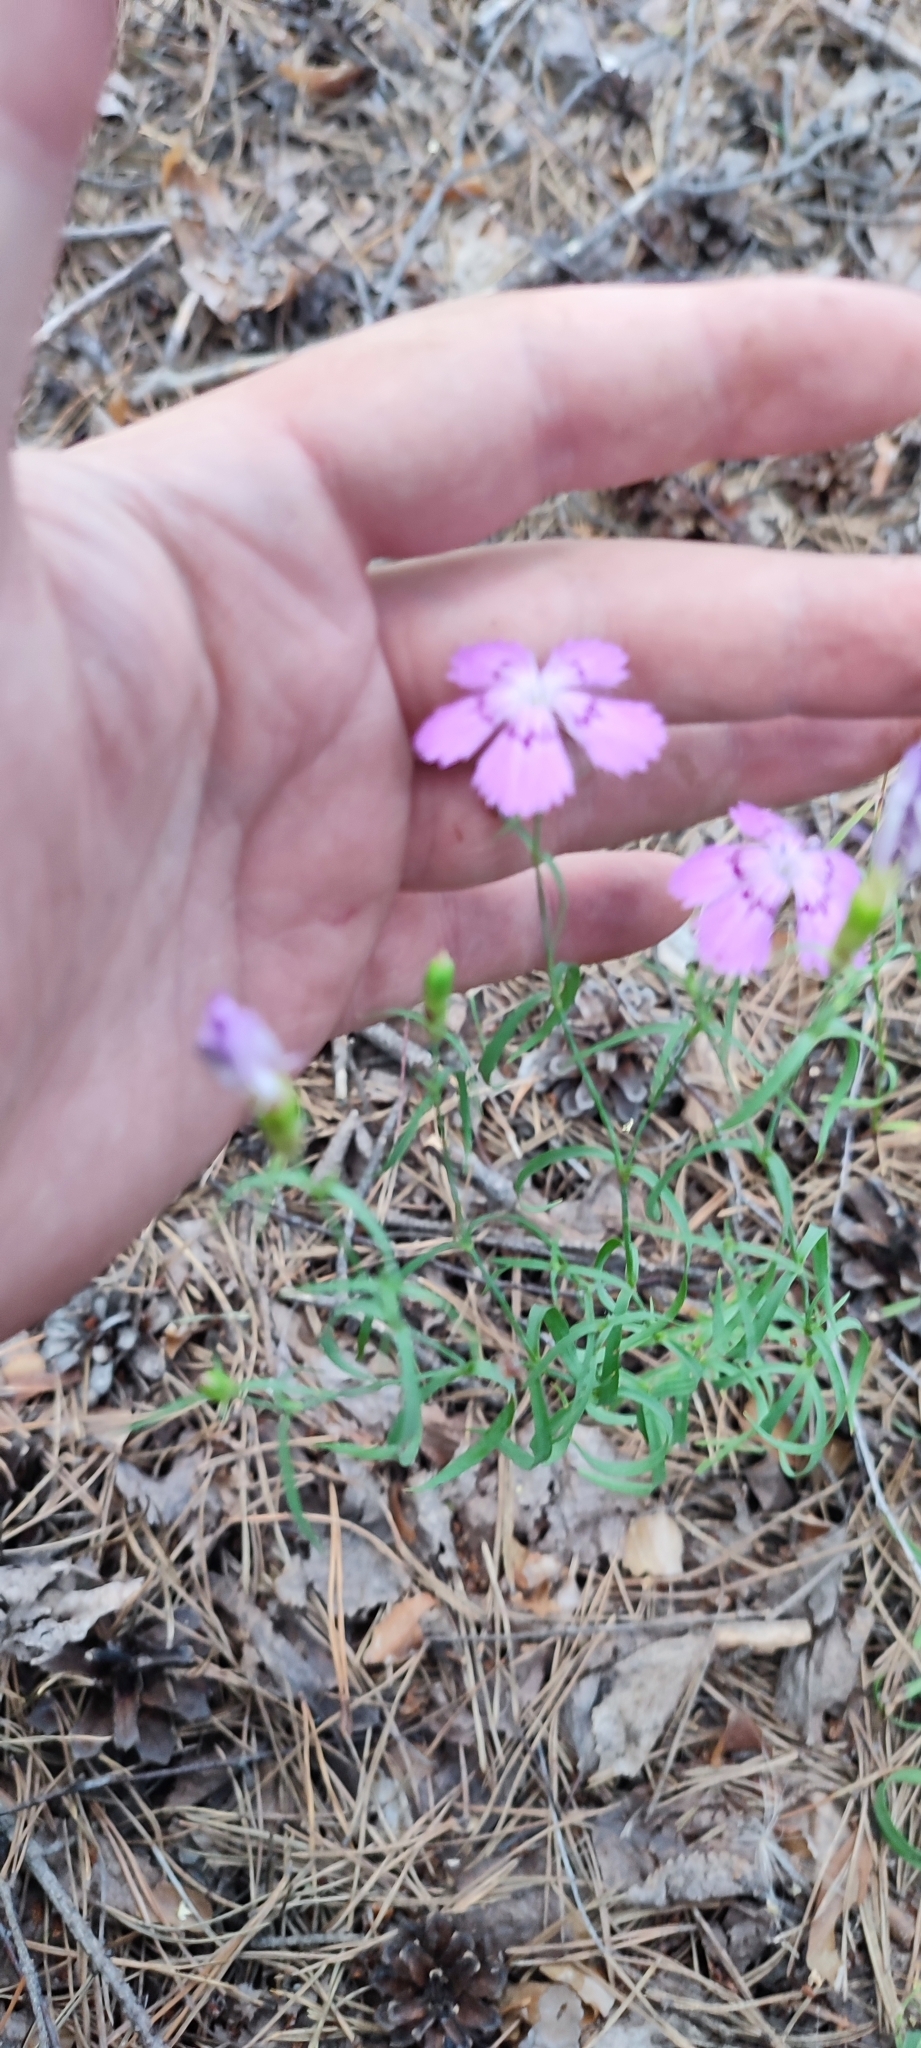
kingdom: Plantae
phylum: Tracheophyta
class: Magnoliopsida
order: Caryophyllales
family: Caryophyllaceae
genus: Dianthus
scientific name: Dianthus chinensis
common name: Rainbow pink
